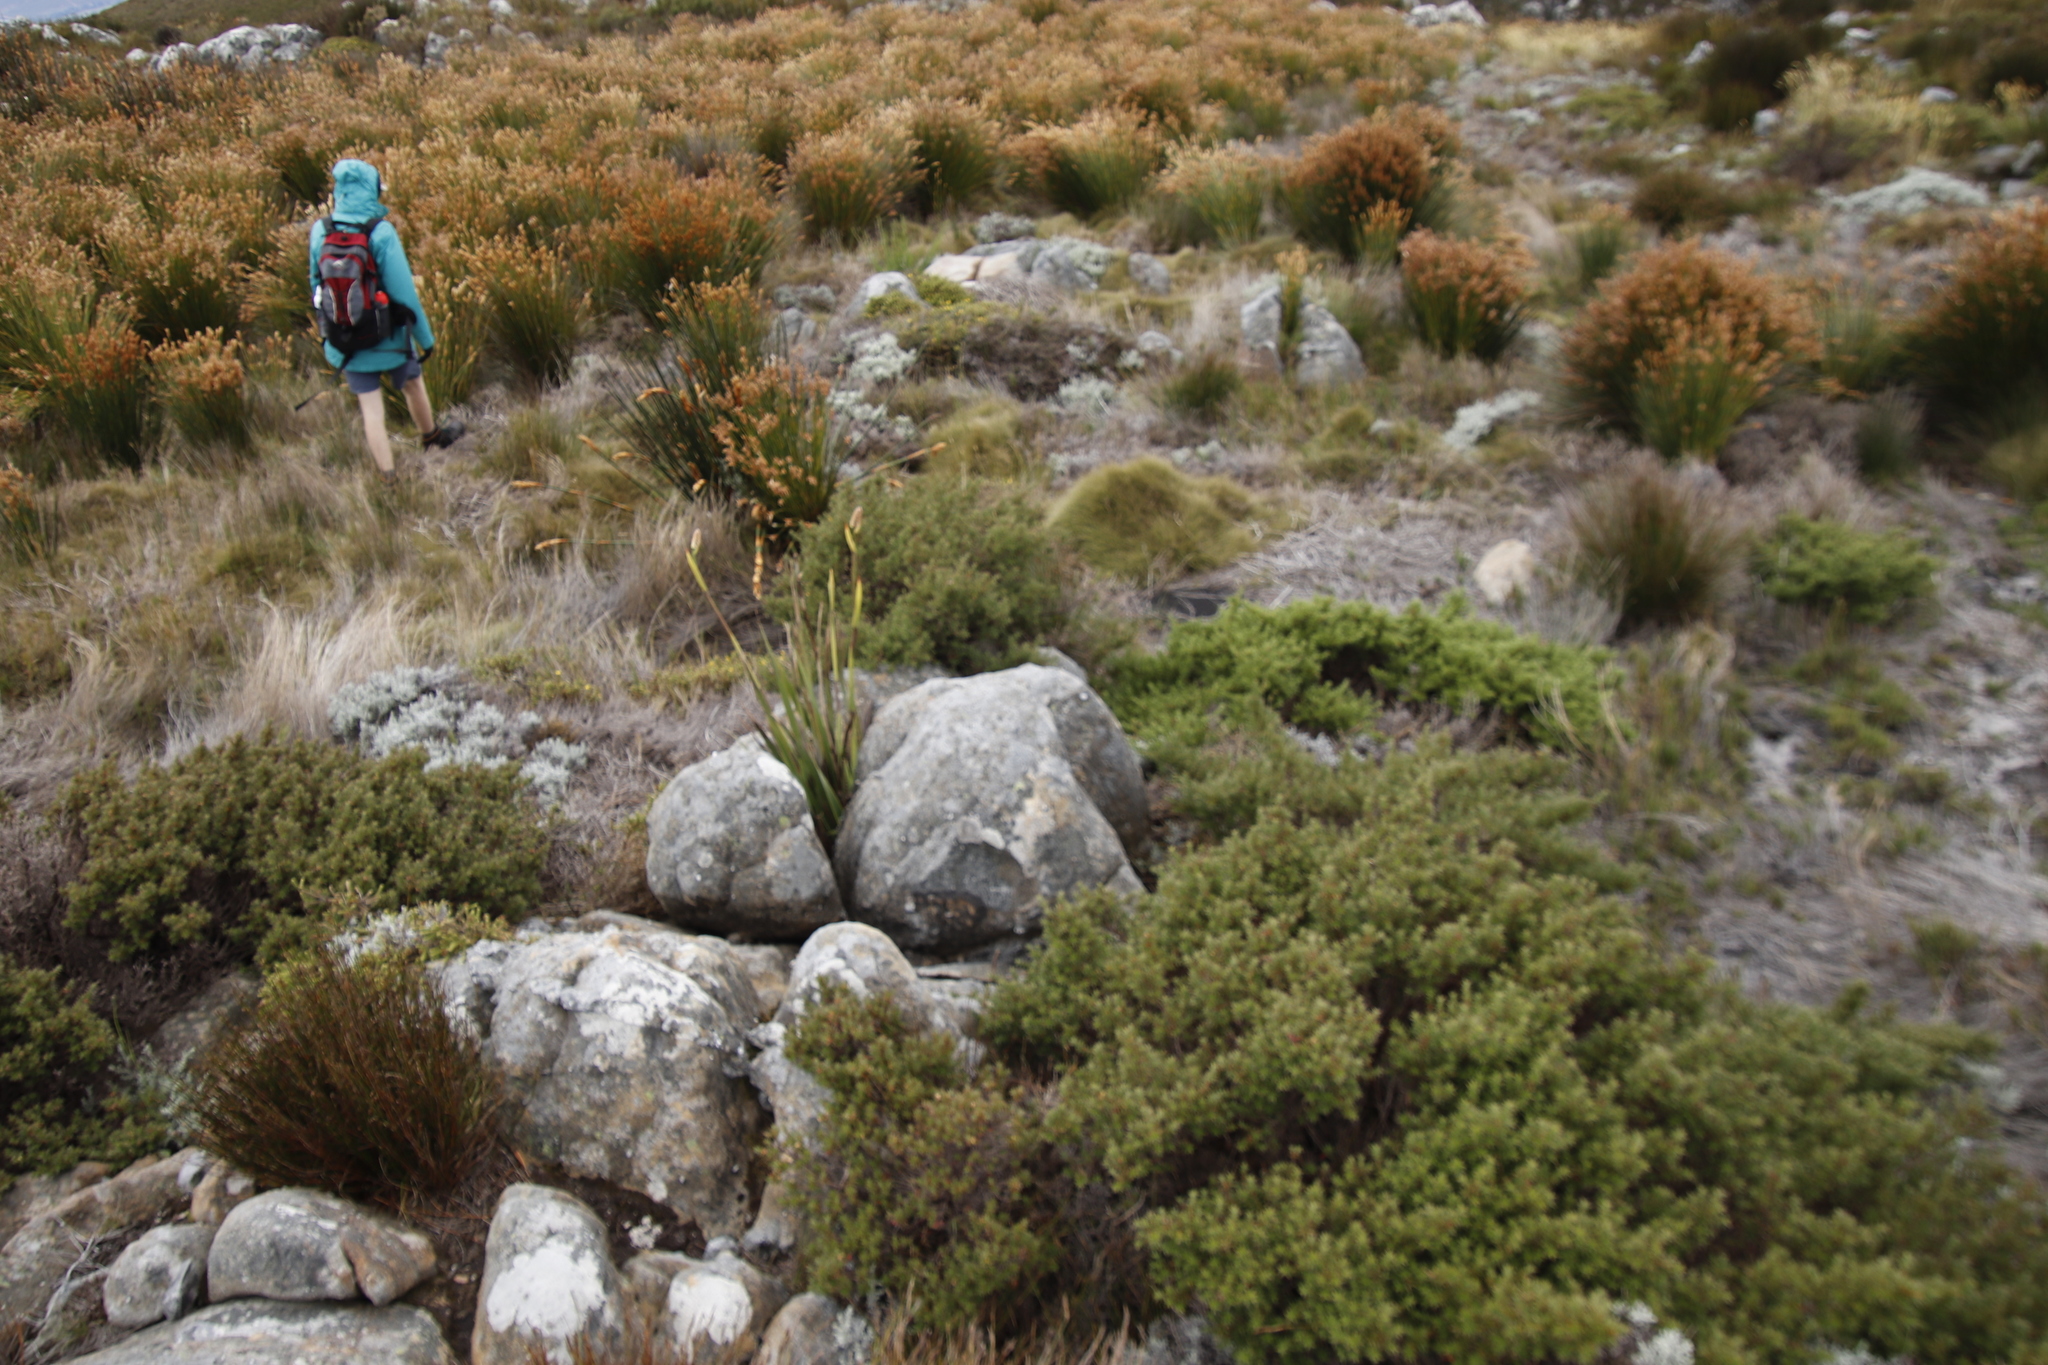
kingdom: Plantae
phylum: Tracheophyta
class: Magnoliopsida
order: Rosales
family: Rosaceae
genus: Cliffortia
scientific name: Cliffortia dregeana
